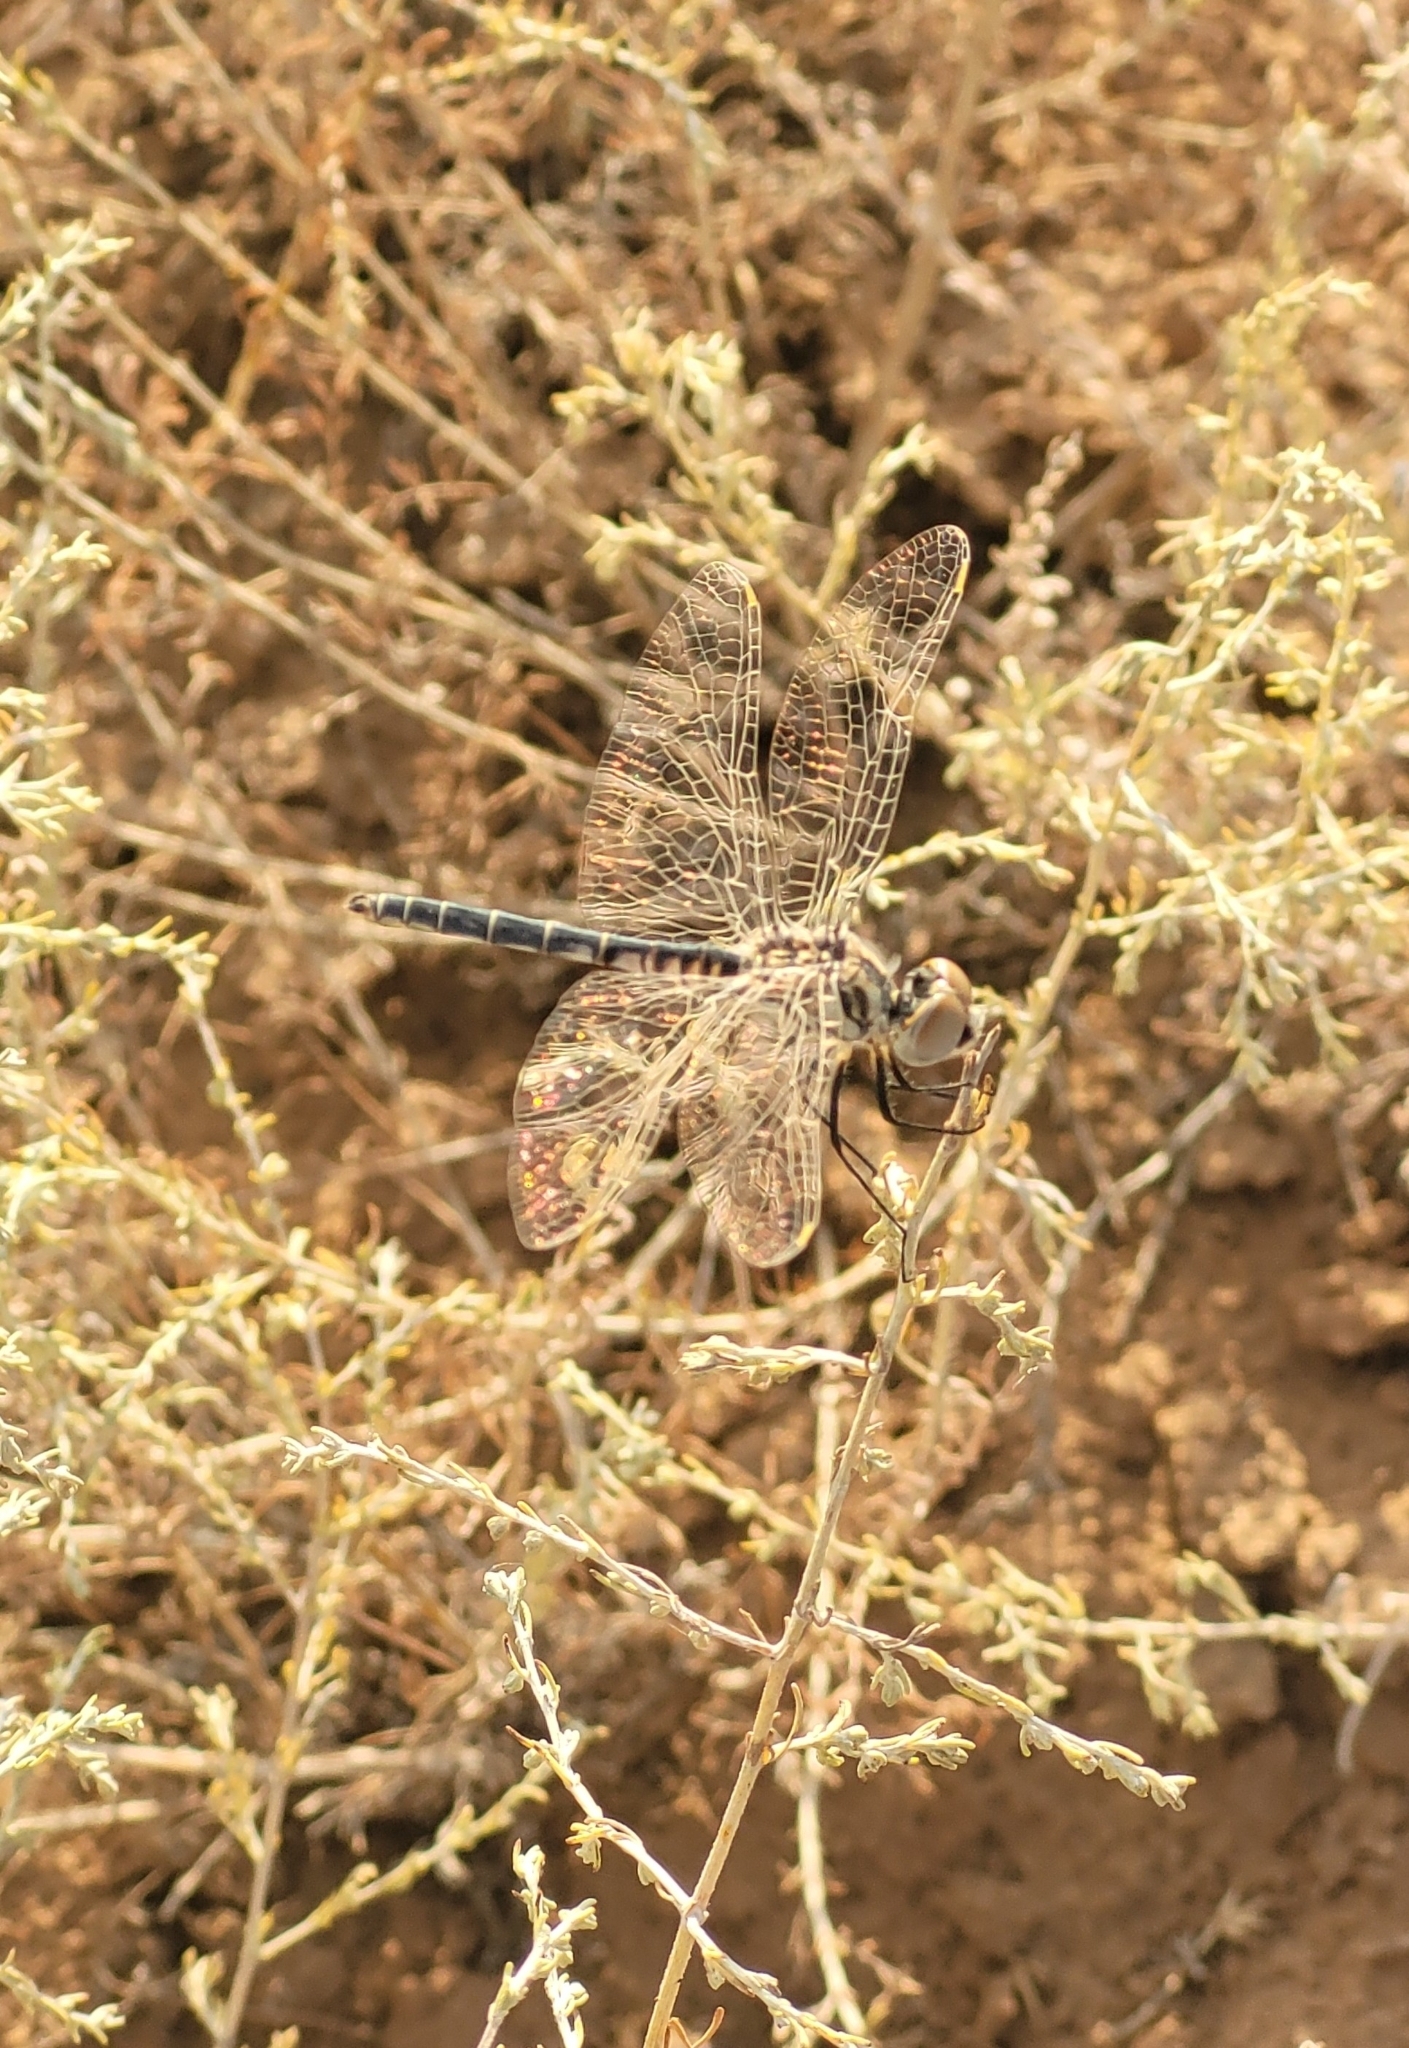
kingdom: Animalia
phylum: Arthropoda
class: Insecta
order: Odonata
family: Libellulidae
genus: Selysiothemis
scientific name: Selysiothemis nigra
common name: Black pennant
